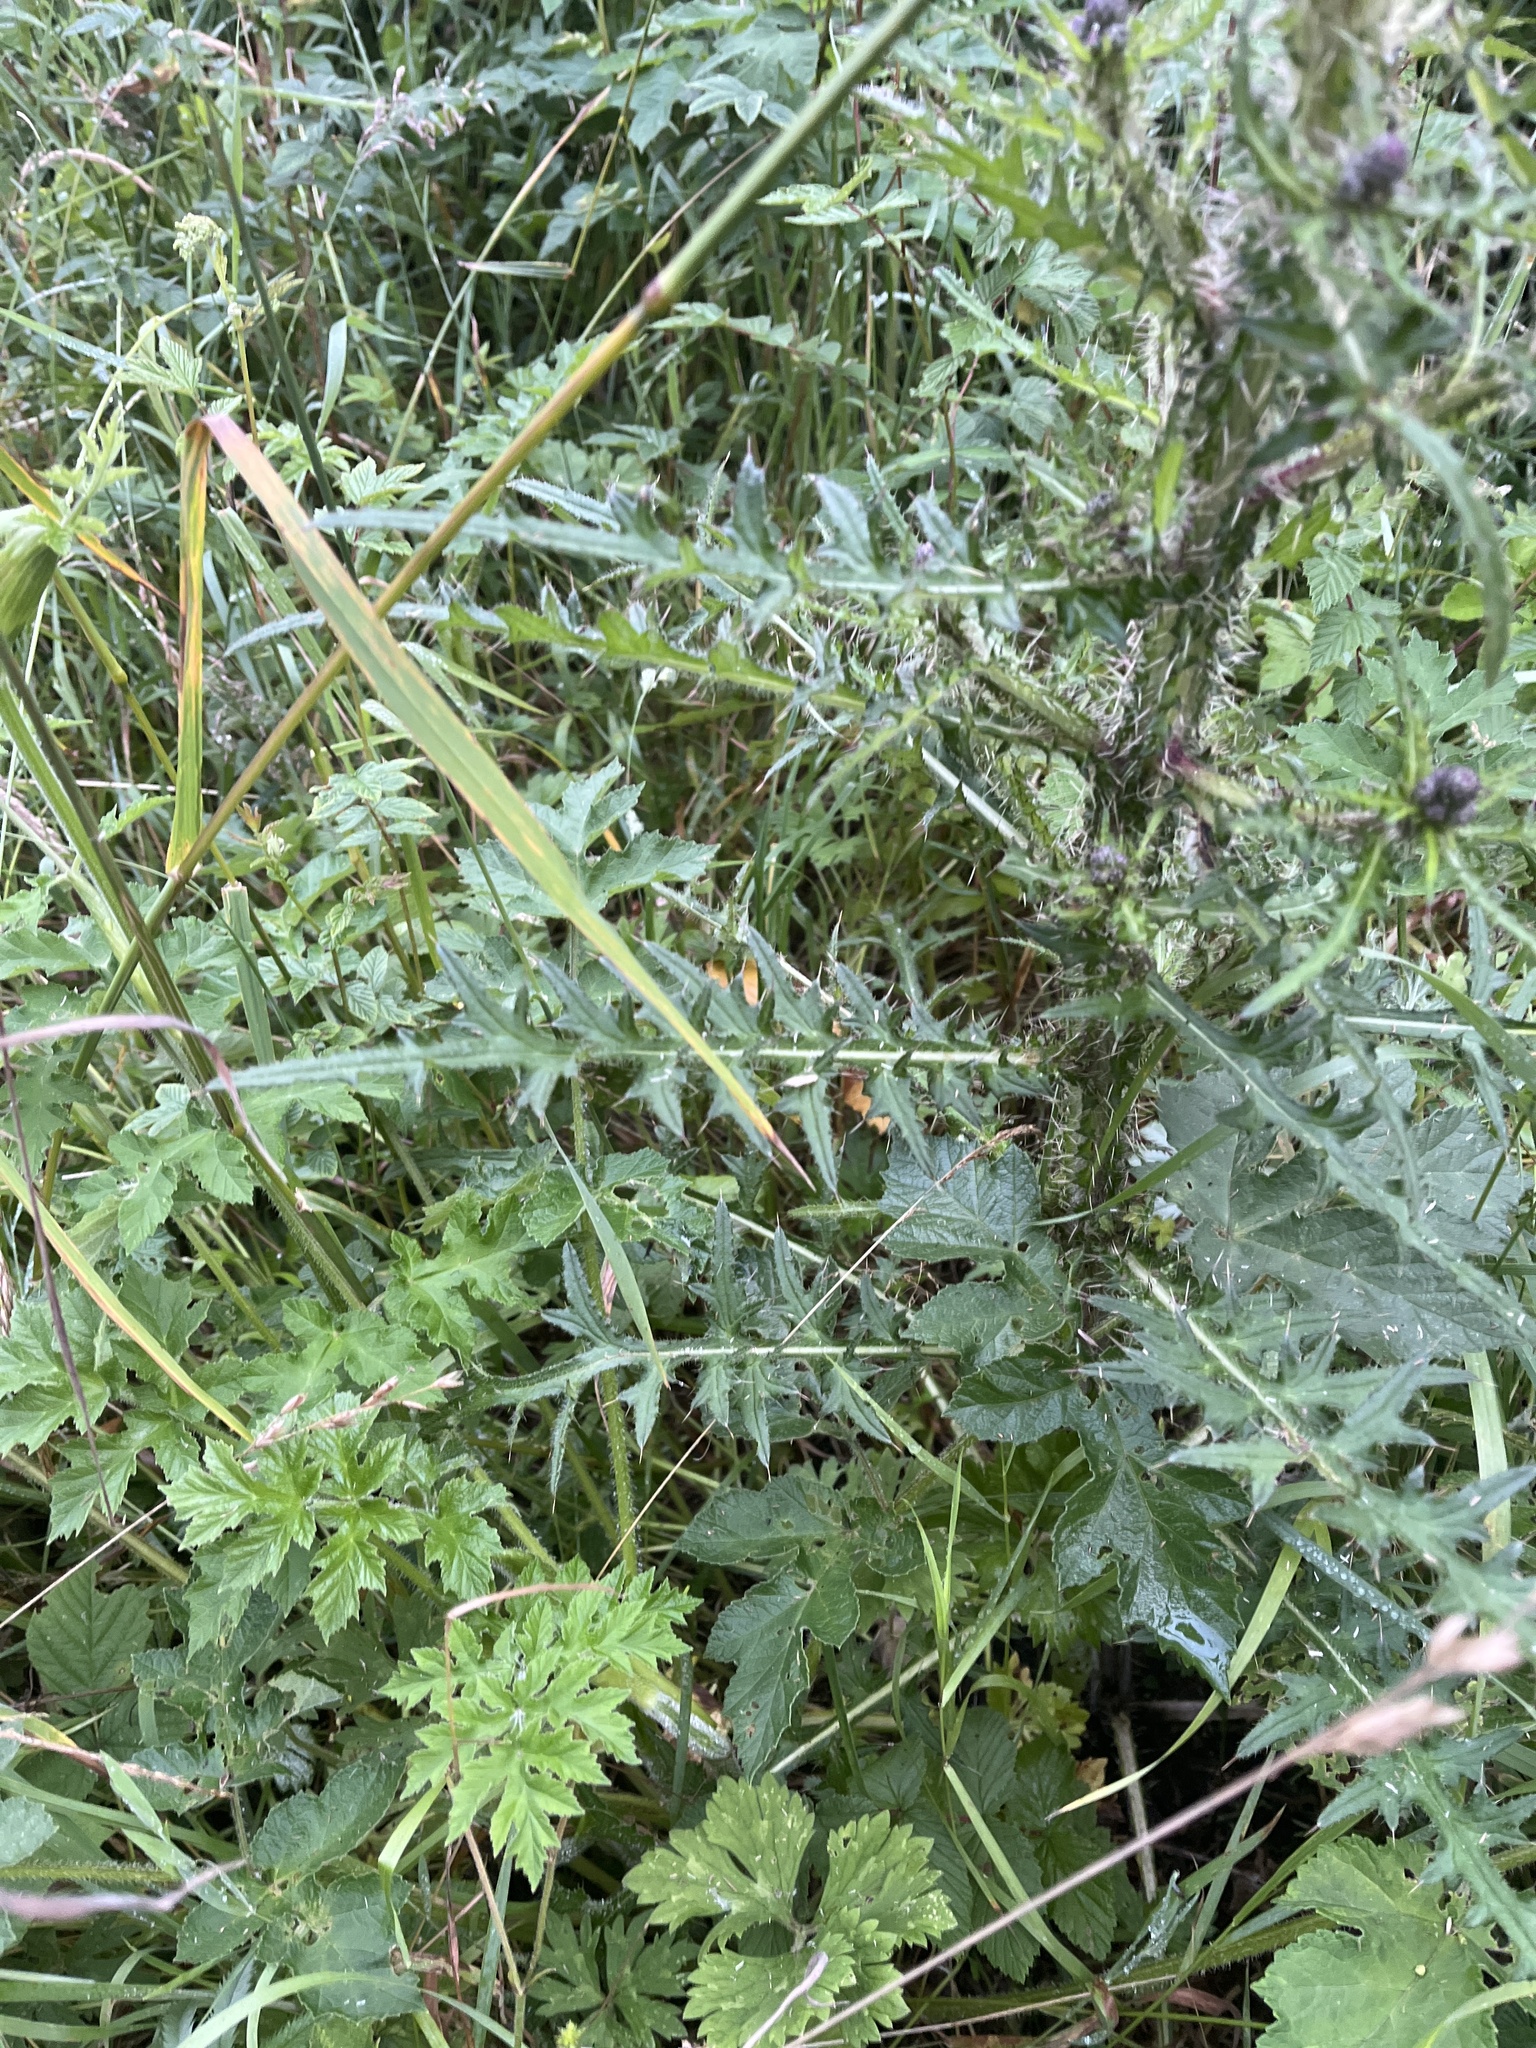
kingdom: Plantae
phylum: Tracheophyta
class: Magnoliopsida
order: Asterales
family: Asteraceae
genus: Cirsium
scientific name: Cirsium palustre
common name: Marsh thistle
